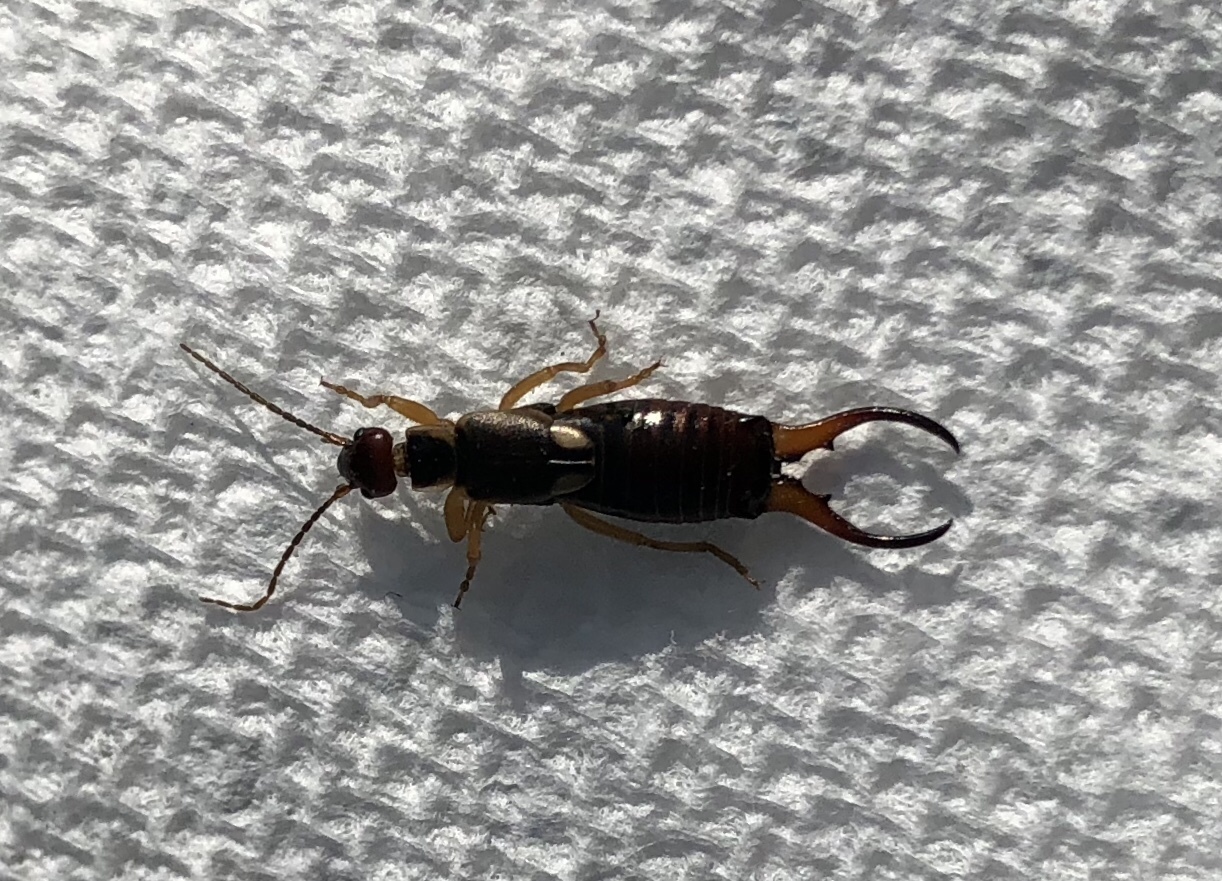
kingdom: Animalia
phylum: Arthropoda
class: Insecta
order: Dermaptera
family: Forficulidae
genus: Forficula
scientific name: Forficula
